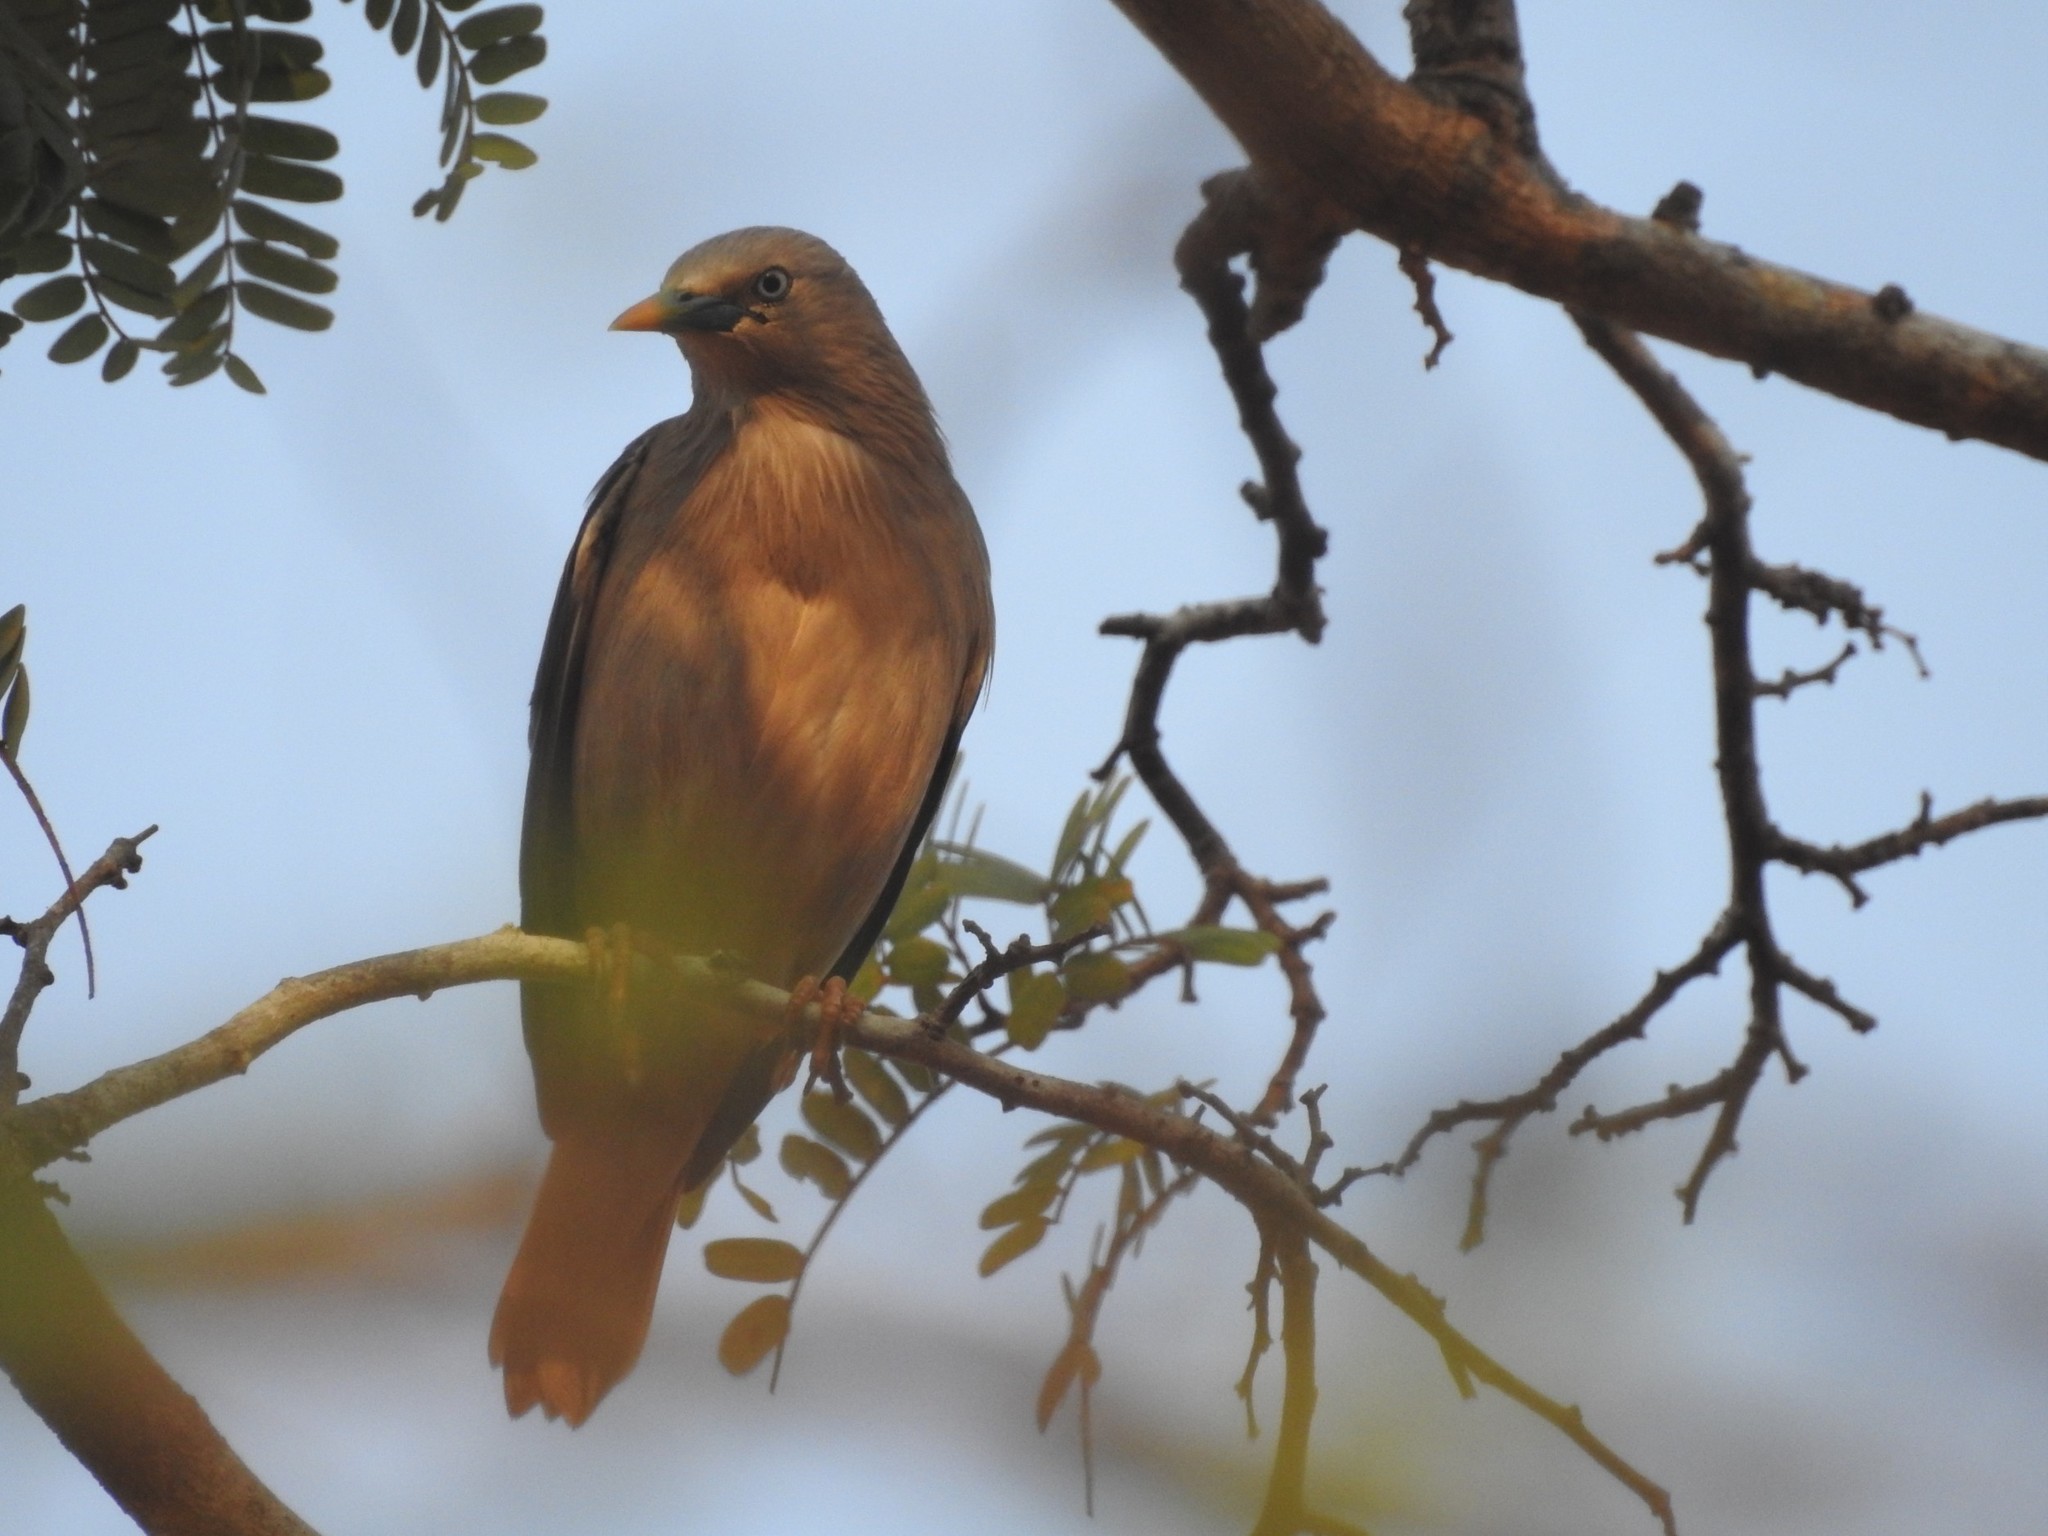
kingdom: Animalia
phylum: Chordata
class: Aves
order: Passeriformes
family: Sturnidae
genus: Sturnia
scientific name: Sturnia malabarica
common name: Chestnut-tailed starling
